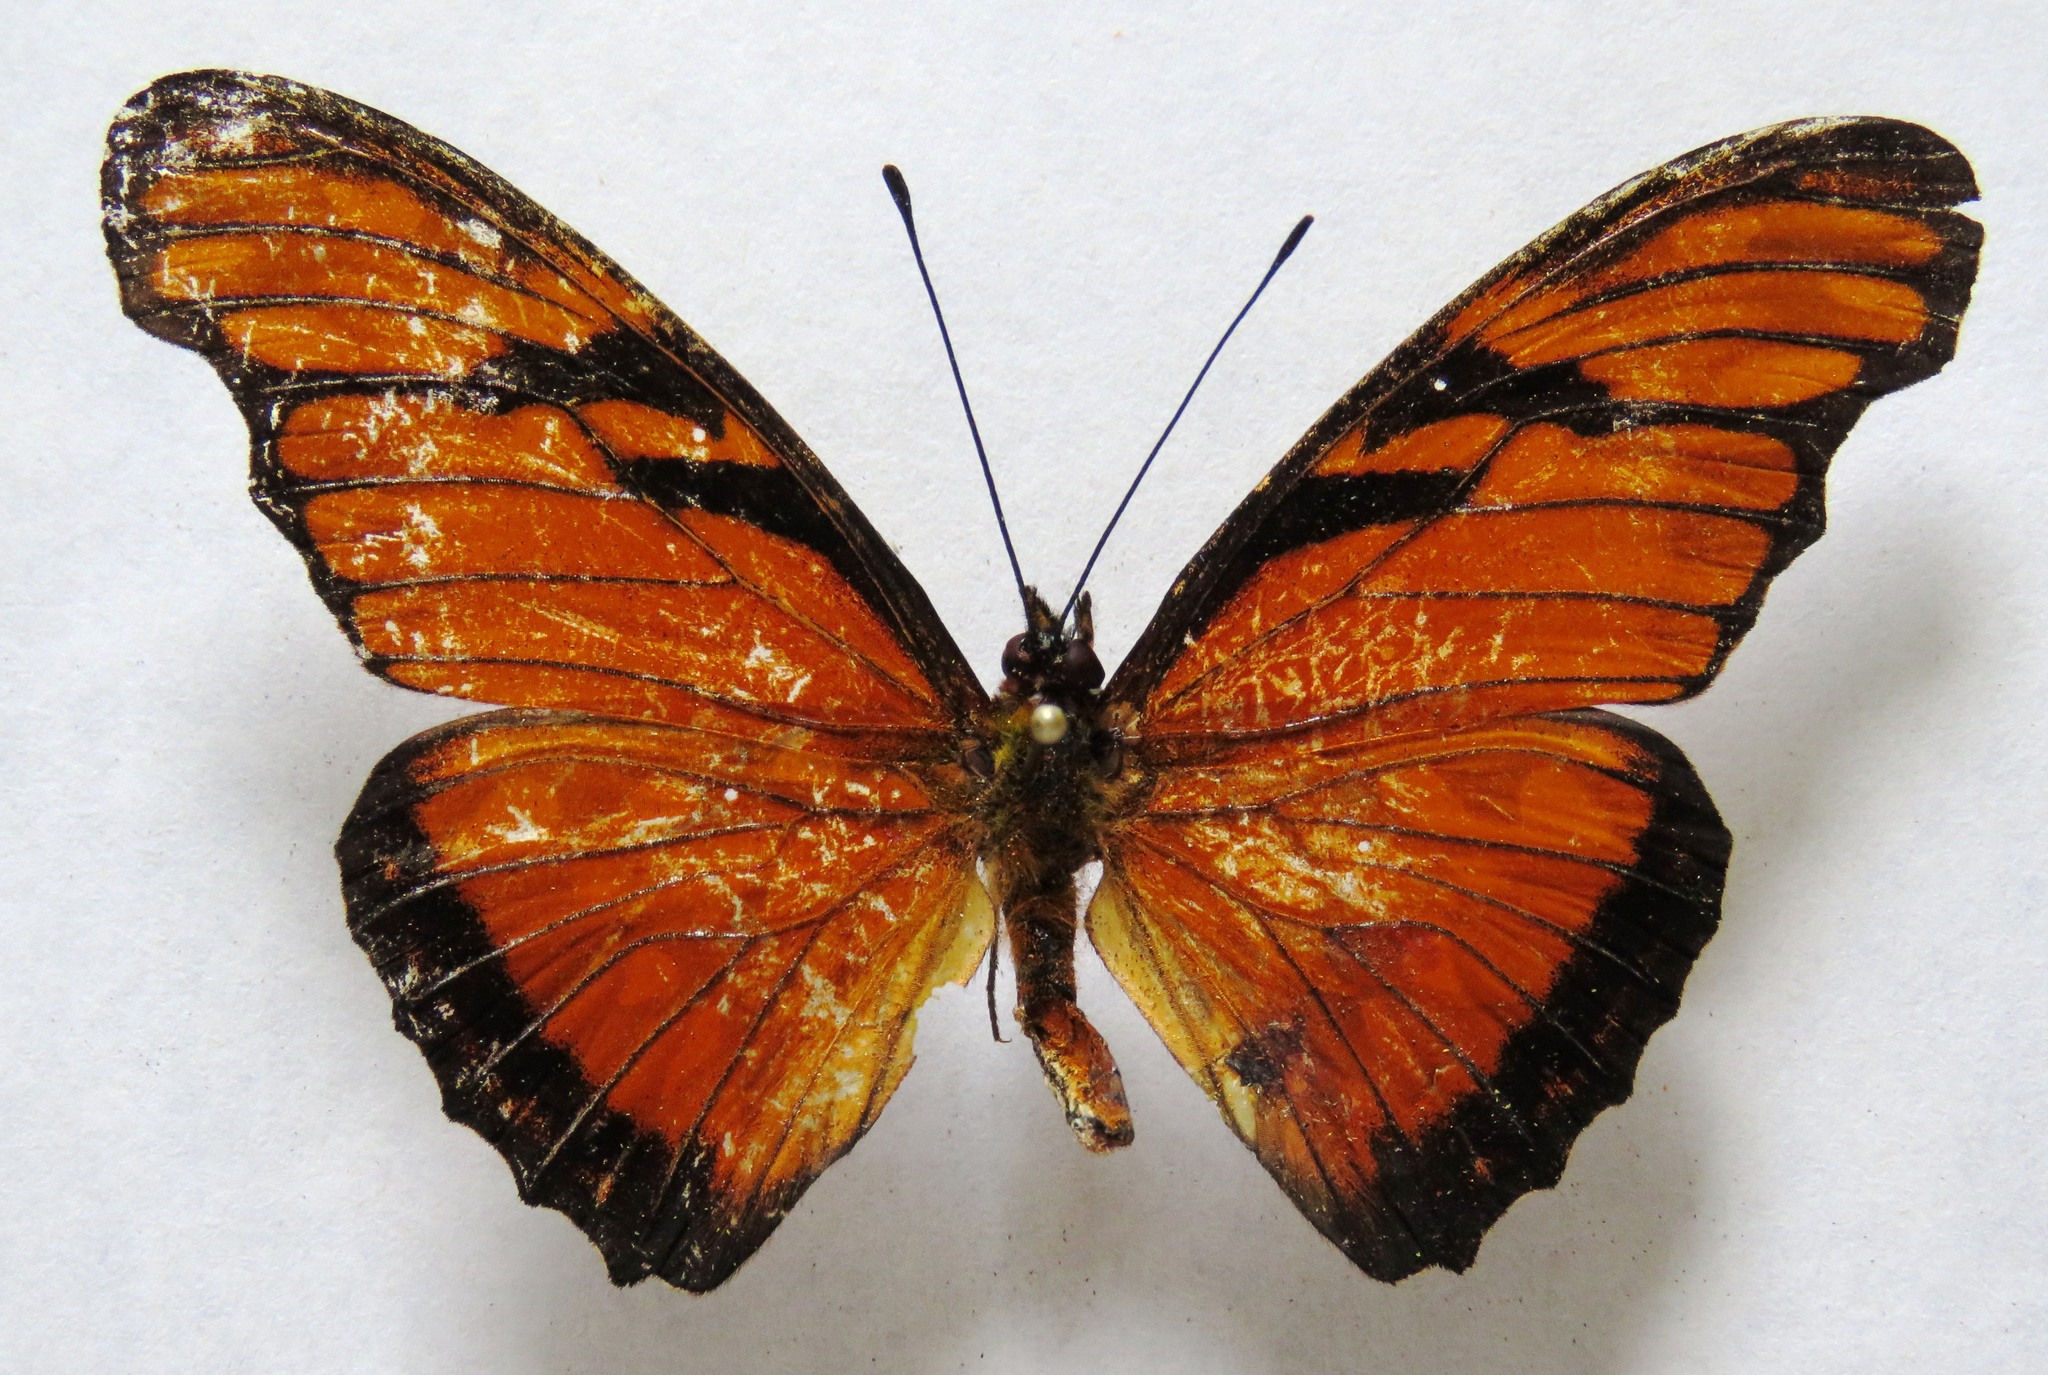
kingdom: Animalia
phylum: Arthropoda
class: Insecta
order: Lepidoptera
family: Nymphalidae
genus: Dione
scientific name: Dione juno
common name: Juno silverspot
